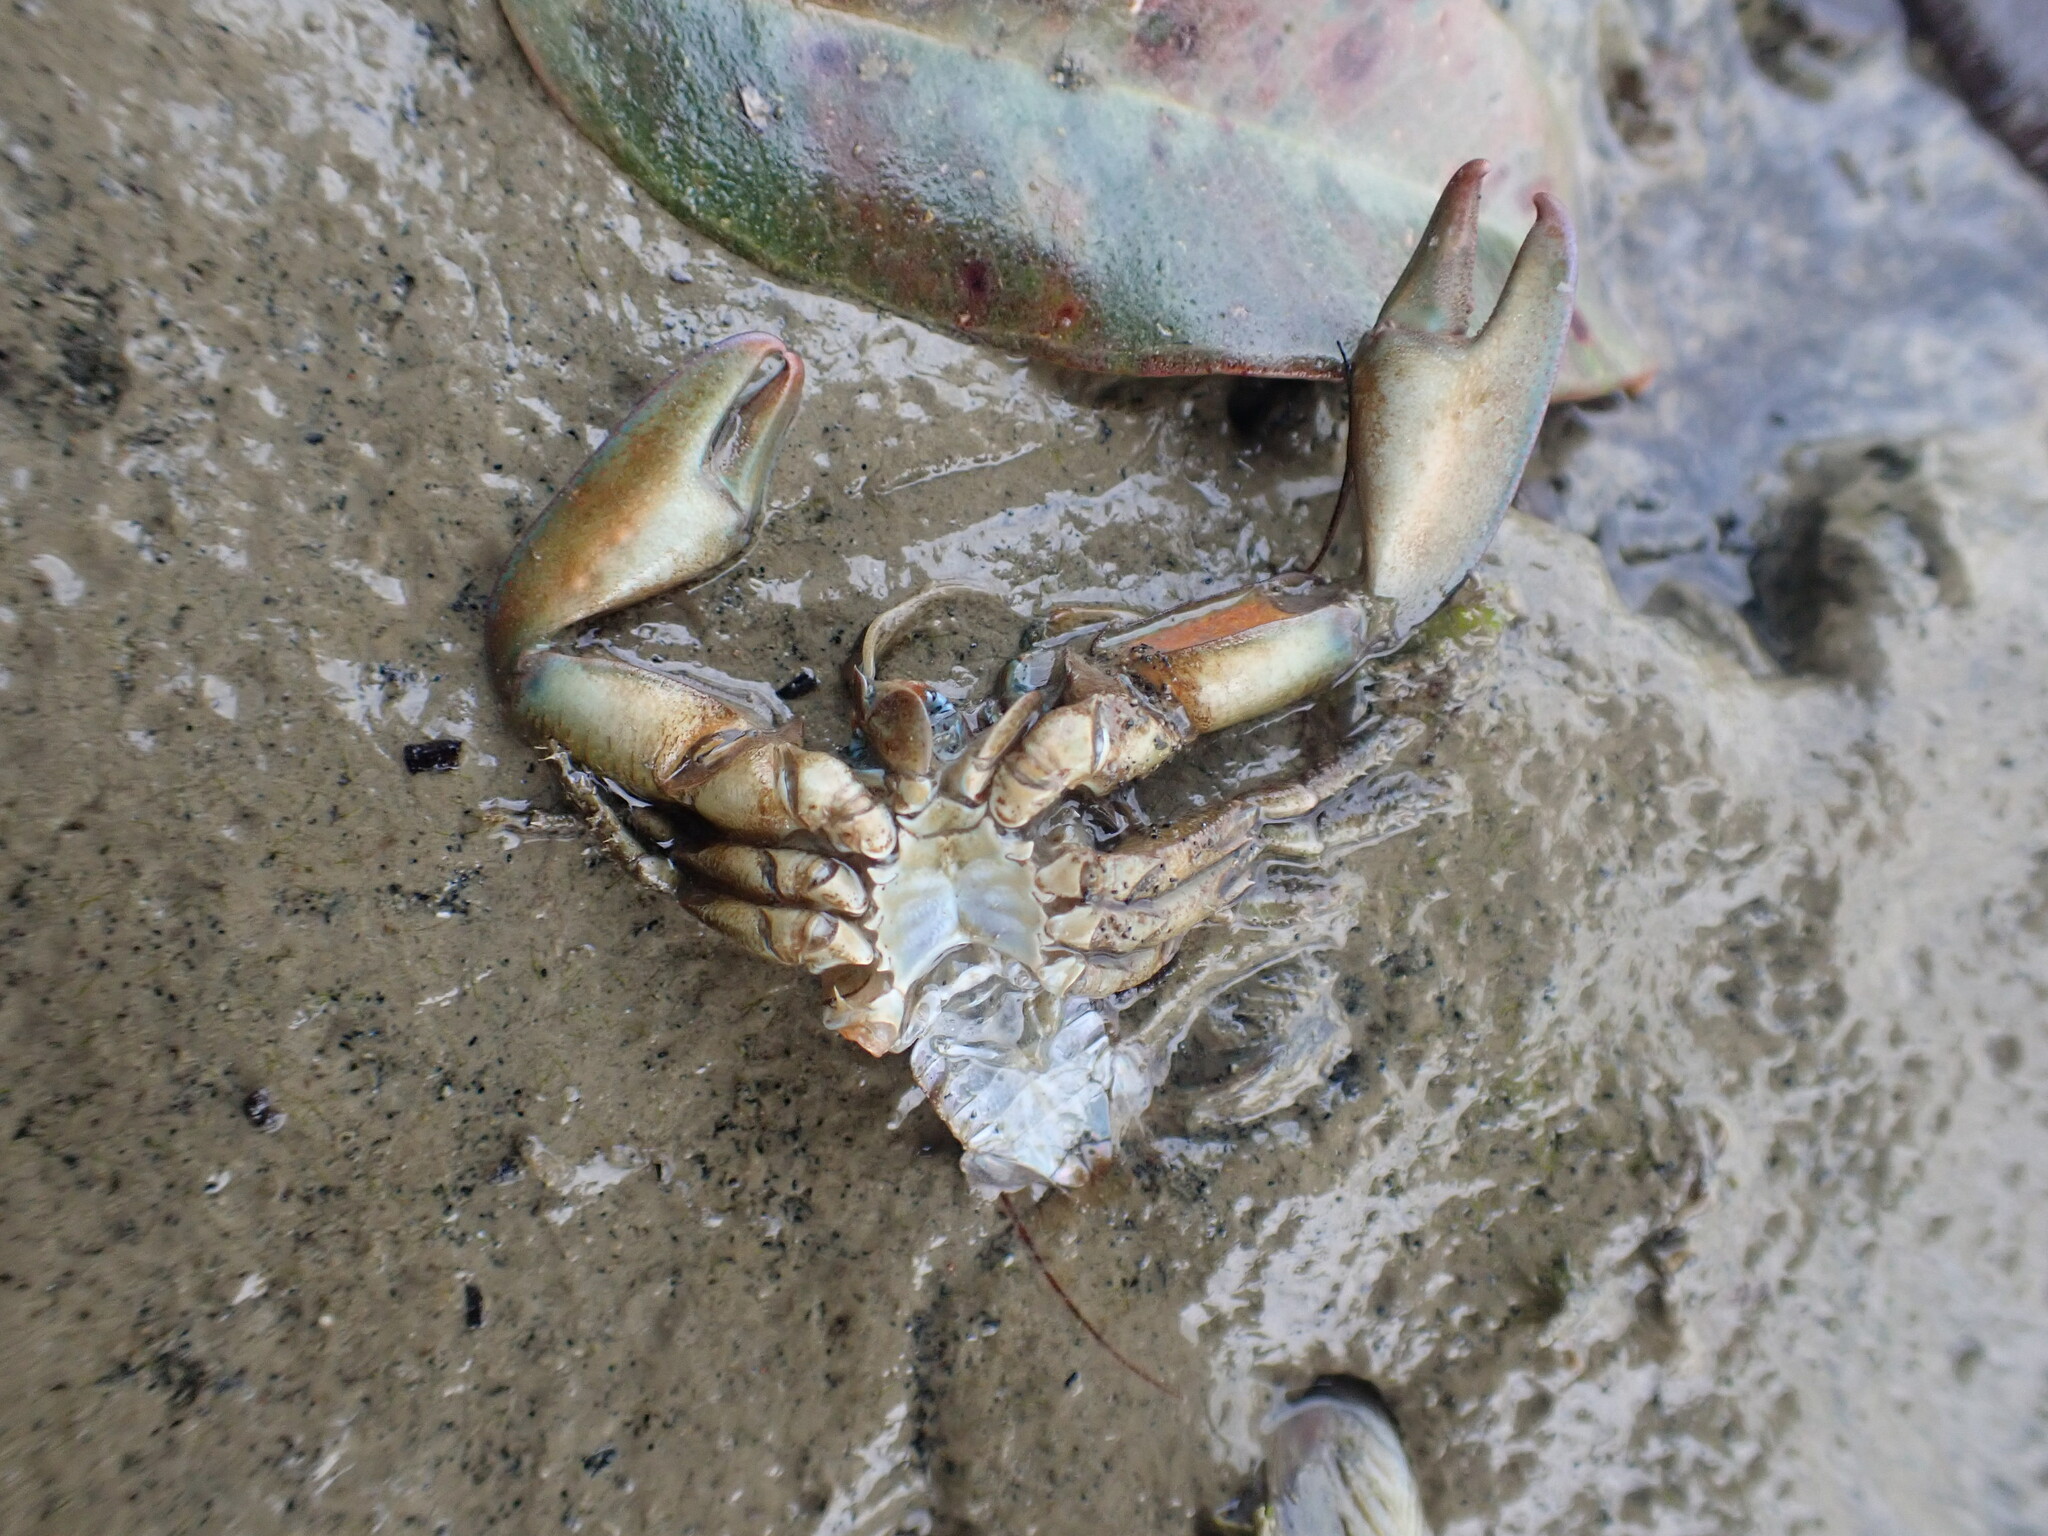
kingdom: Animalia
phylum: Arthropoda
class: Malacostraca
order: Decapoda
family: Porcellanidae
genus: Petrolisthes
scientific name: Petrolisthes elongatus
